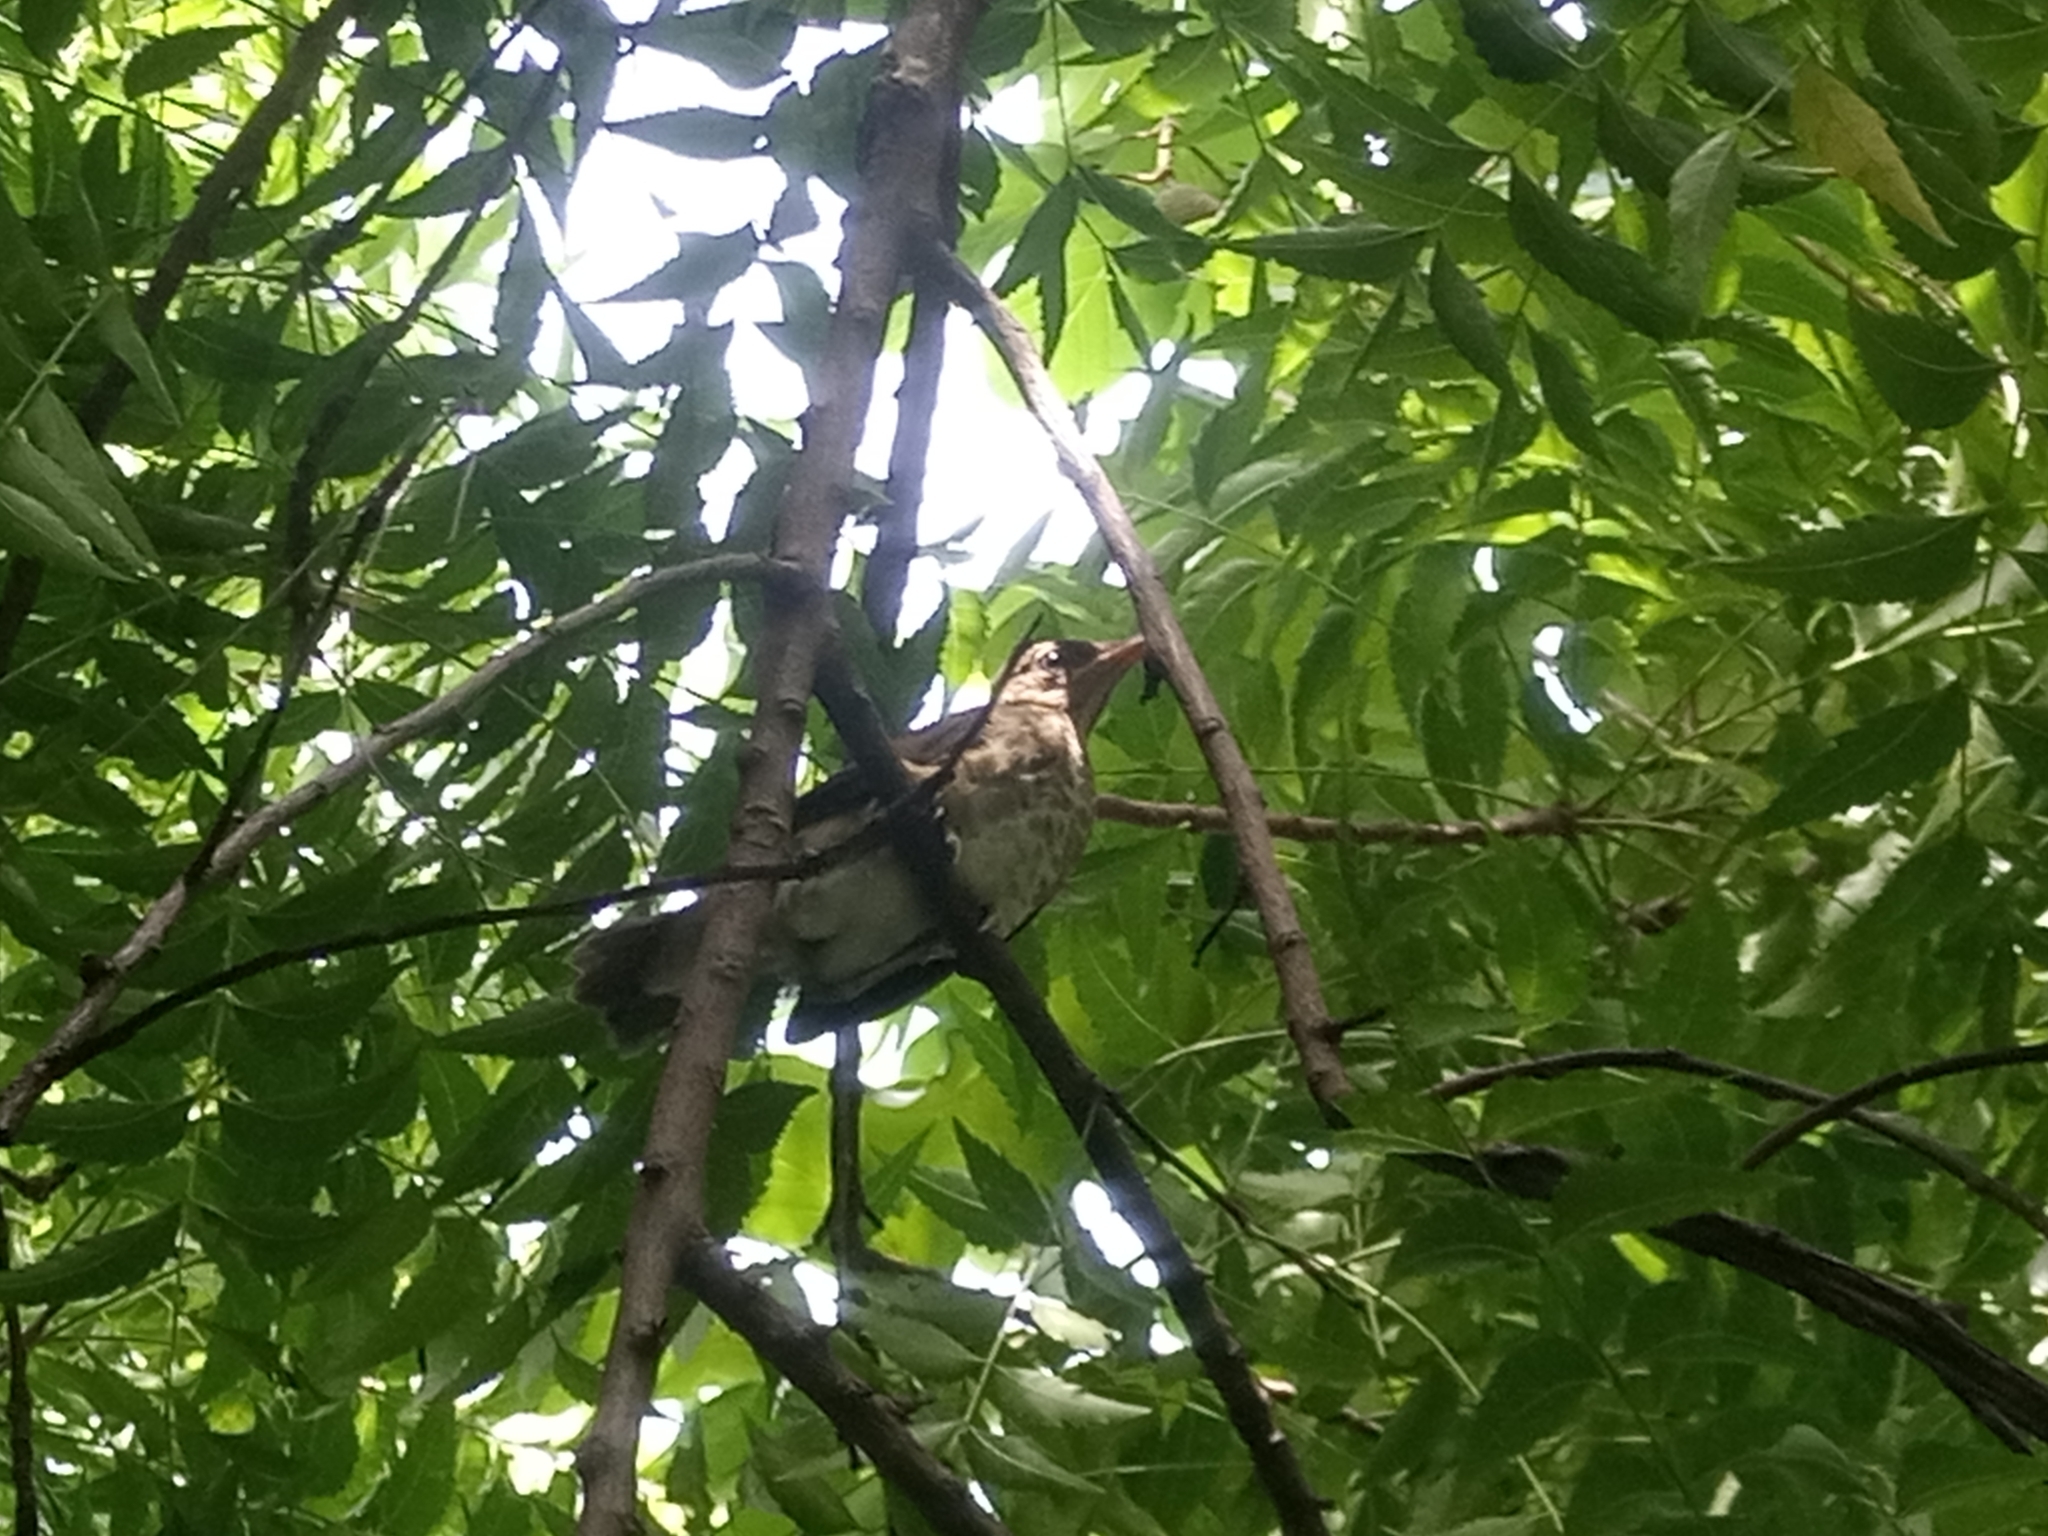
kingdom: Animalia
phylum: Chordata
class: Aves
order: Passeriformes
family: Turdidae
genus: Turdus
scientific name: Turdus pelios
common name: African thrush
